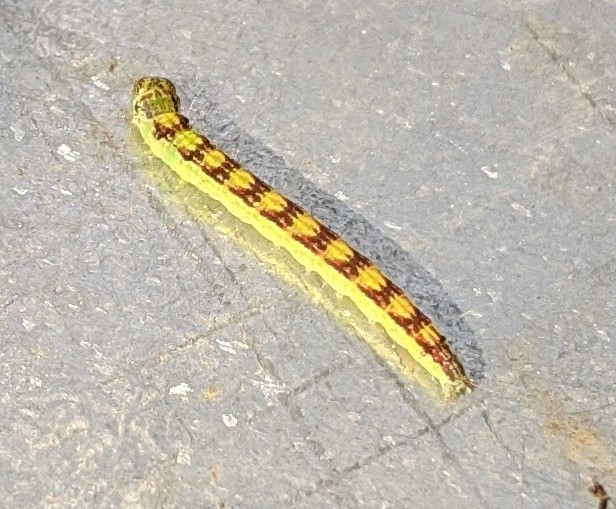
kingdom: Animalia
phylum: Arthropoda
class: Insecta
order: Lepidoptera
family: Pyralidae
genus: Oreana
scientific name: Oreana unicolorella
